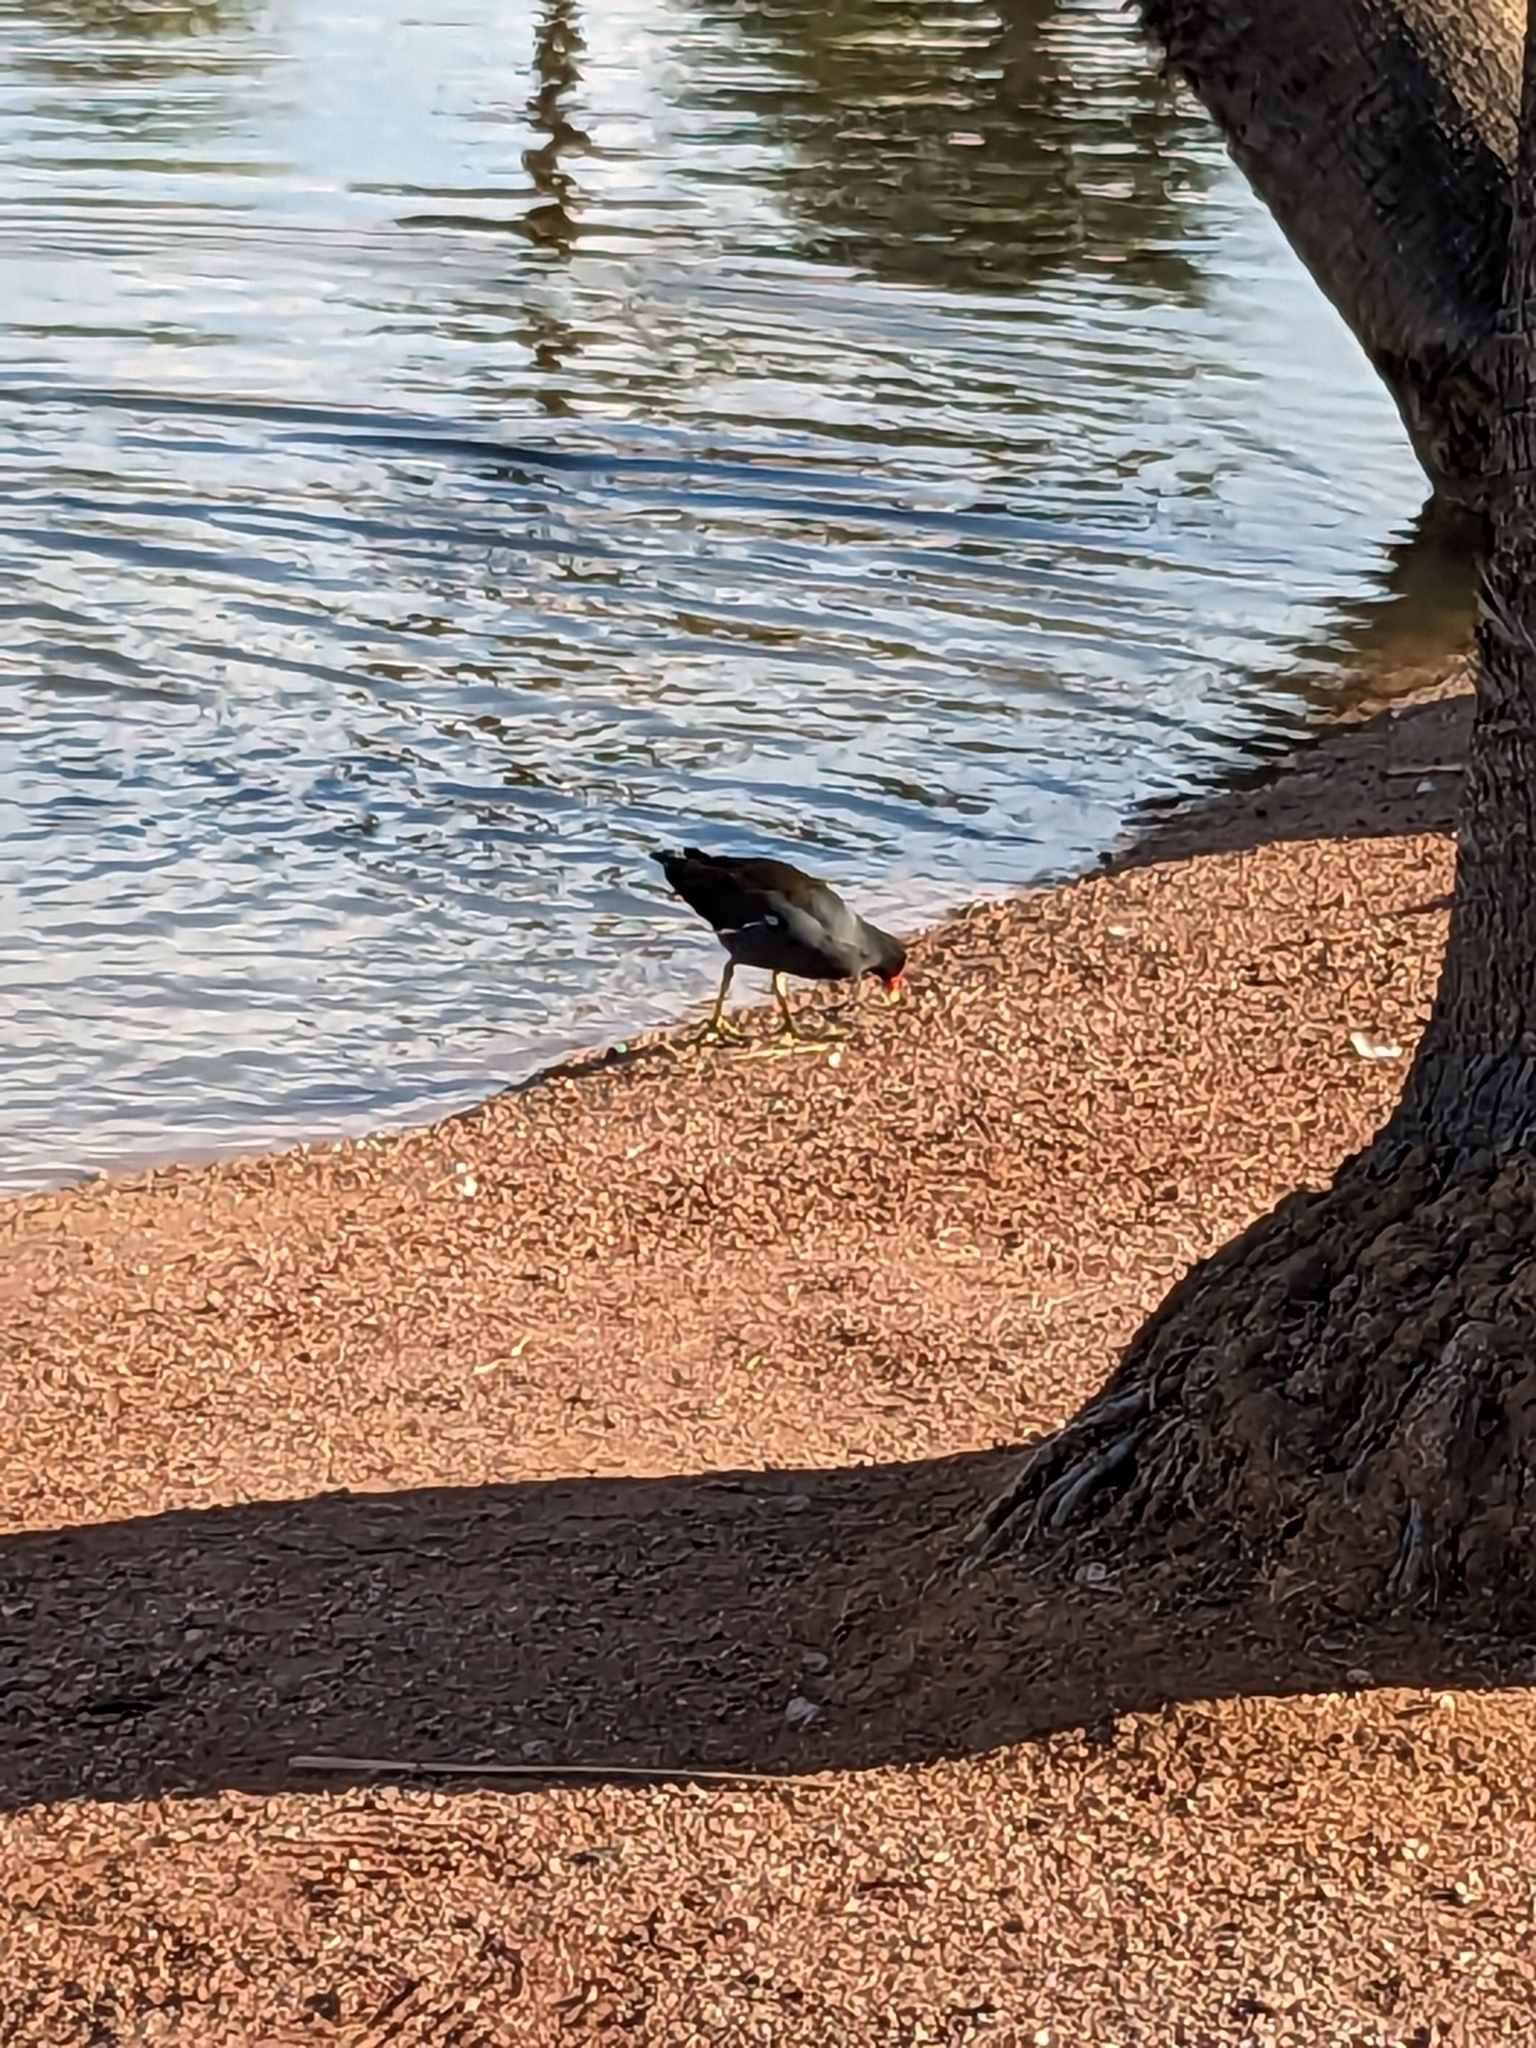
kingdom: Animalia
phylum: Chordata
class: Aves
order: Gruiformes
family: Rallidae
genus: Gallinula
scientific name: Gallinula chloropus
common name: Common moorhen
